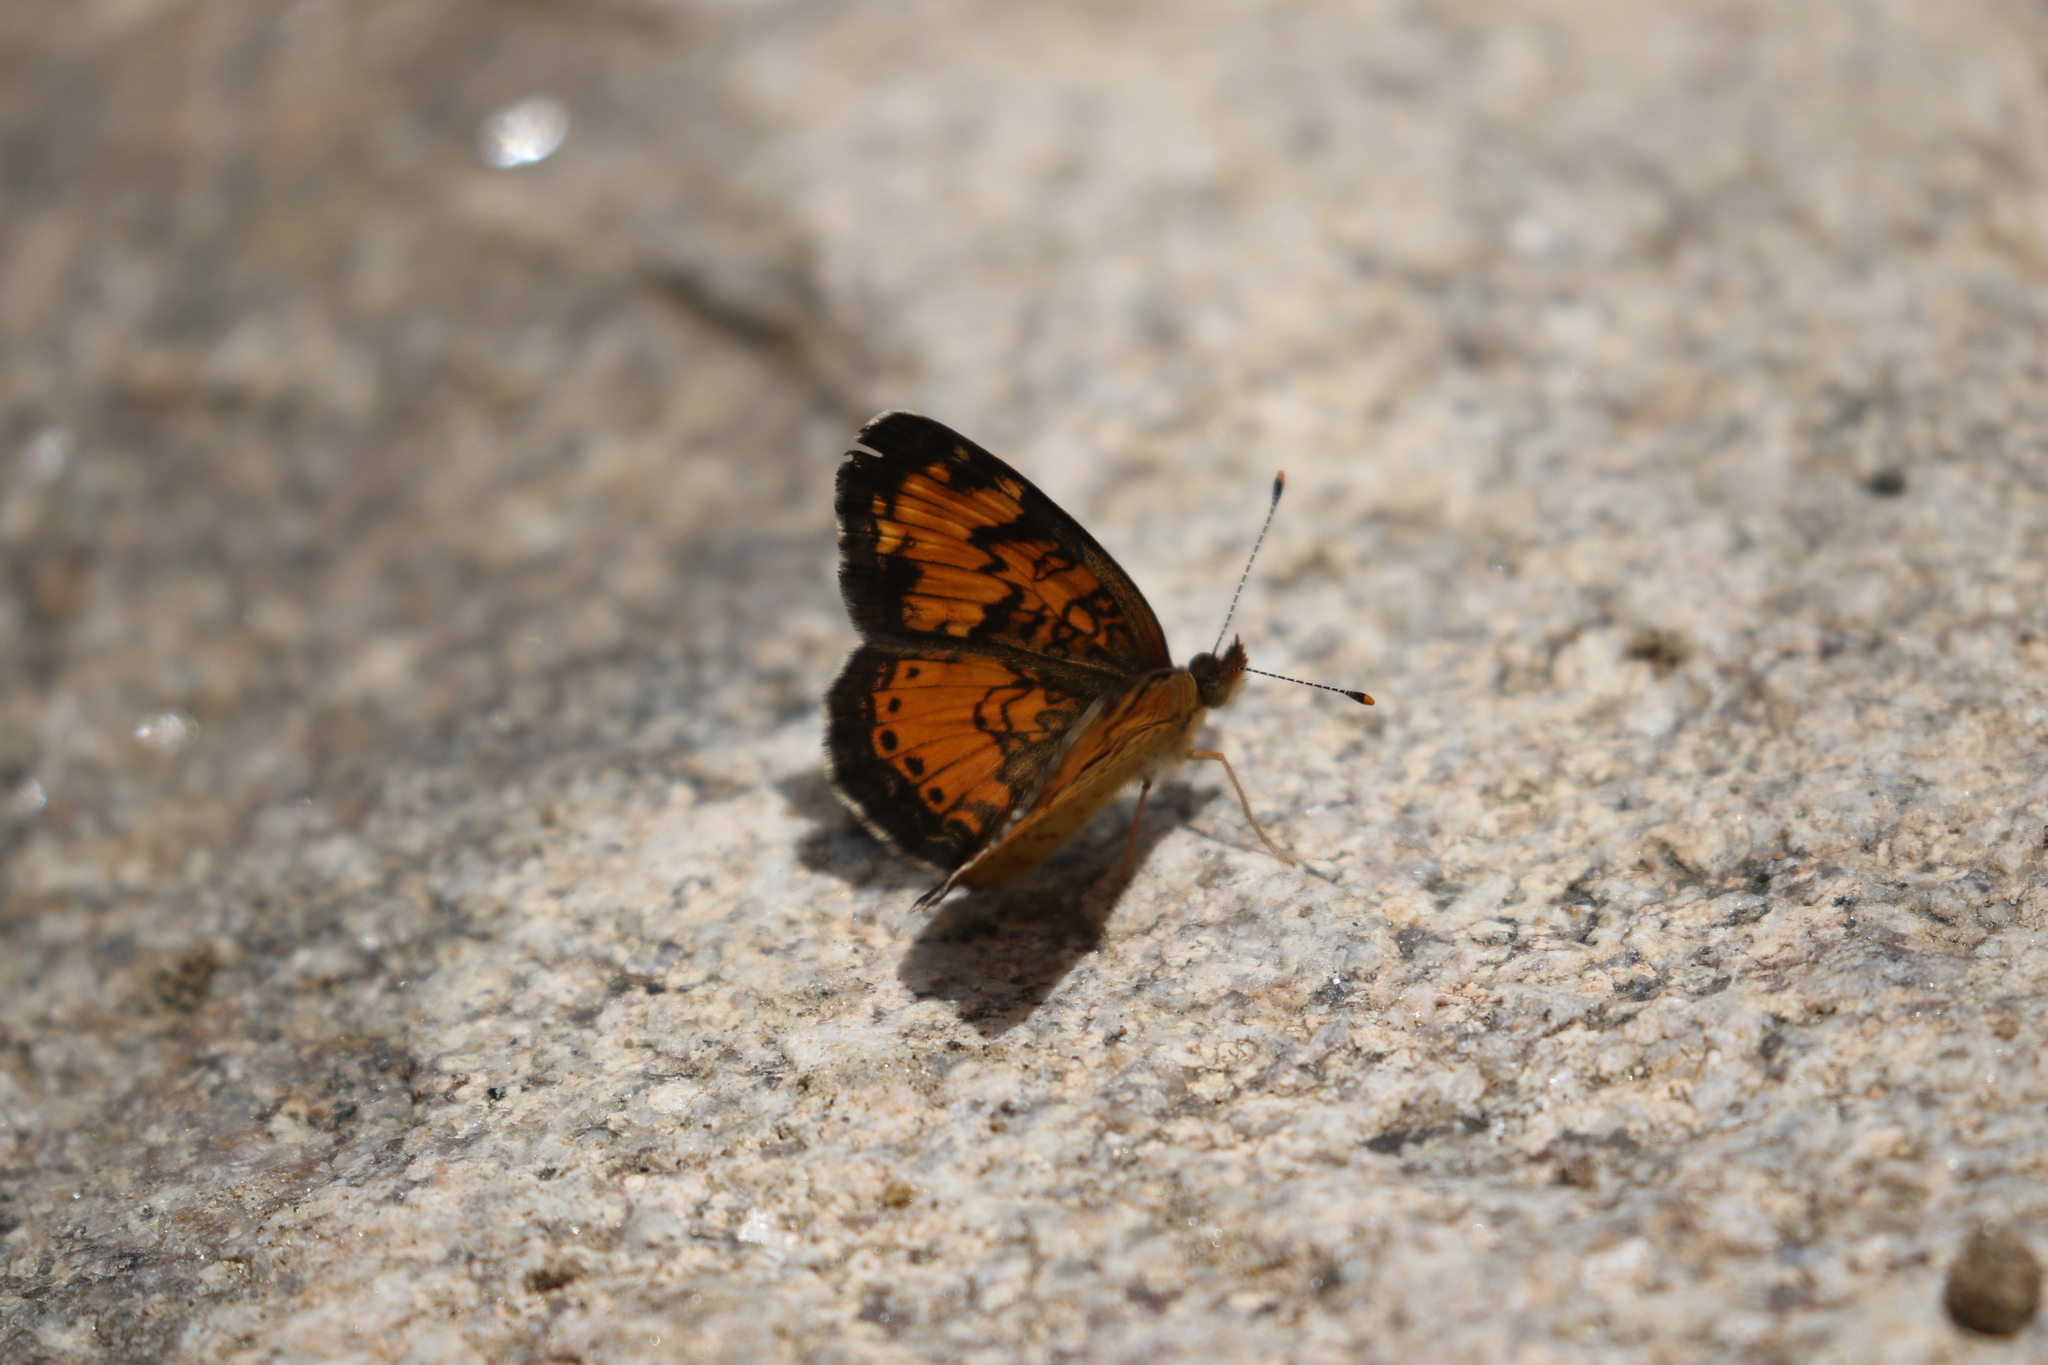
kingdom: Animalia
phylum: Arthropoda
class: Insecta
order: Lepidoptera
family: Nymphalidae
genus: Phyciodes
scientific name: Phyciodes tharos
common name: Pearl crescent
